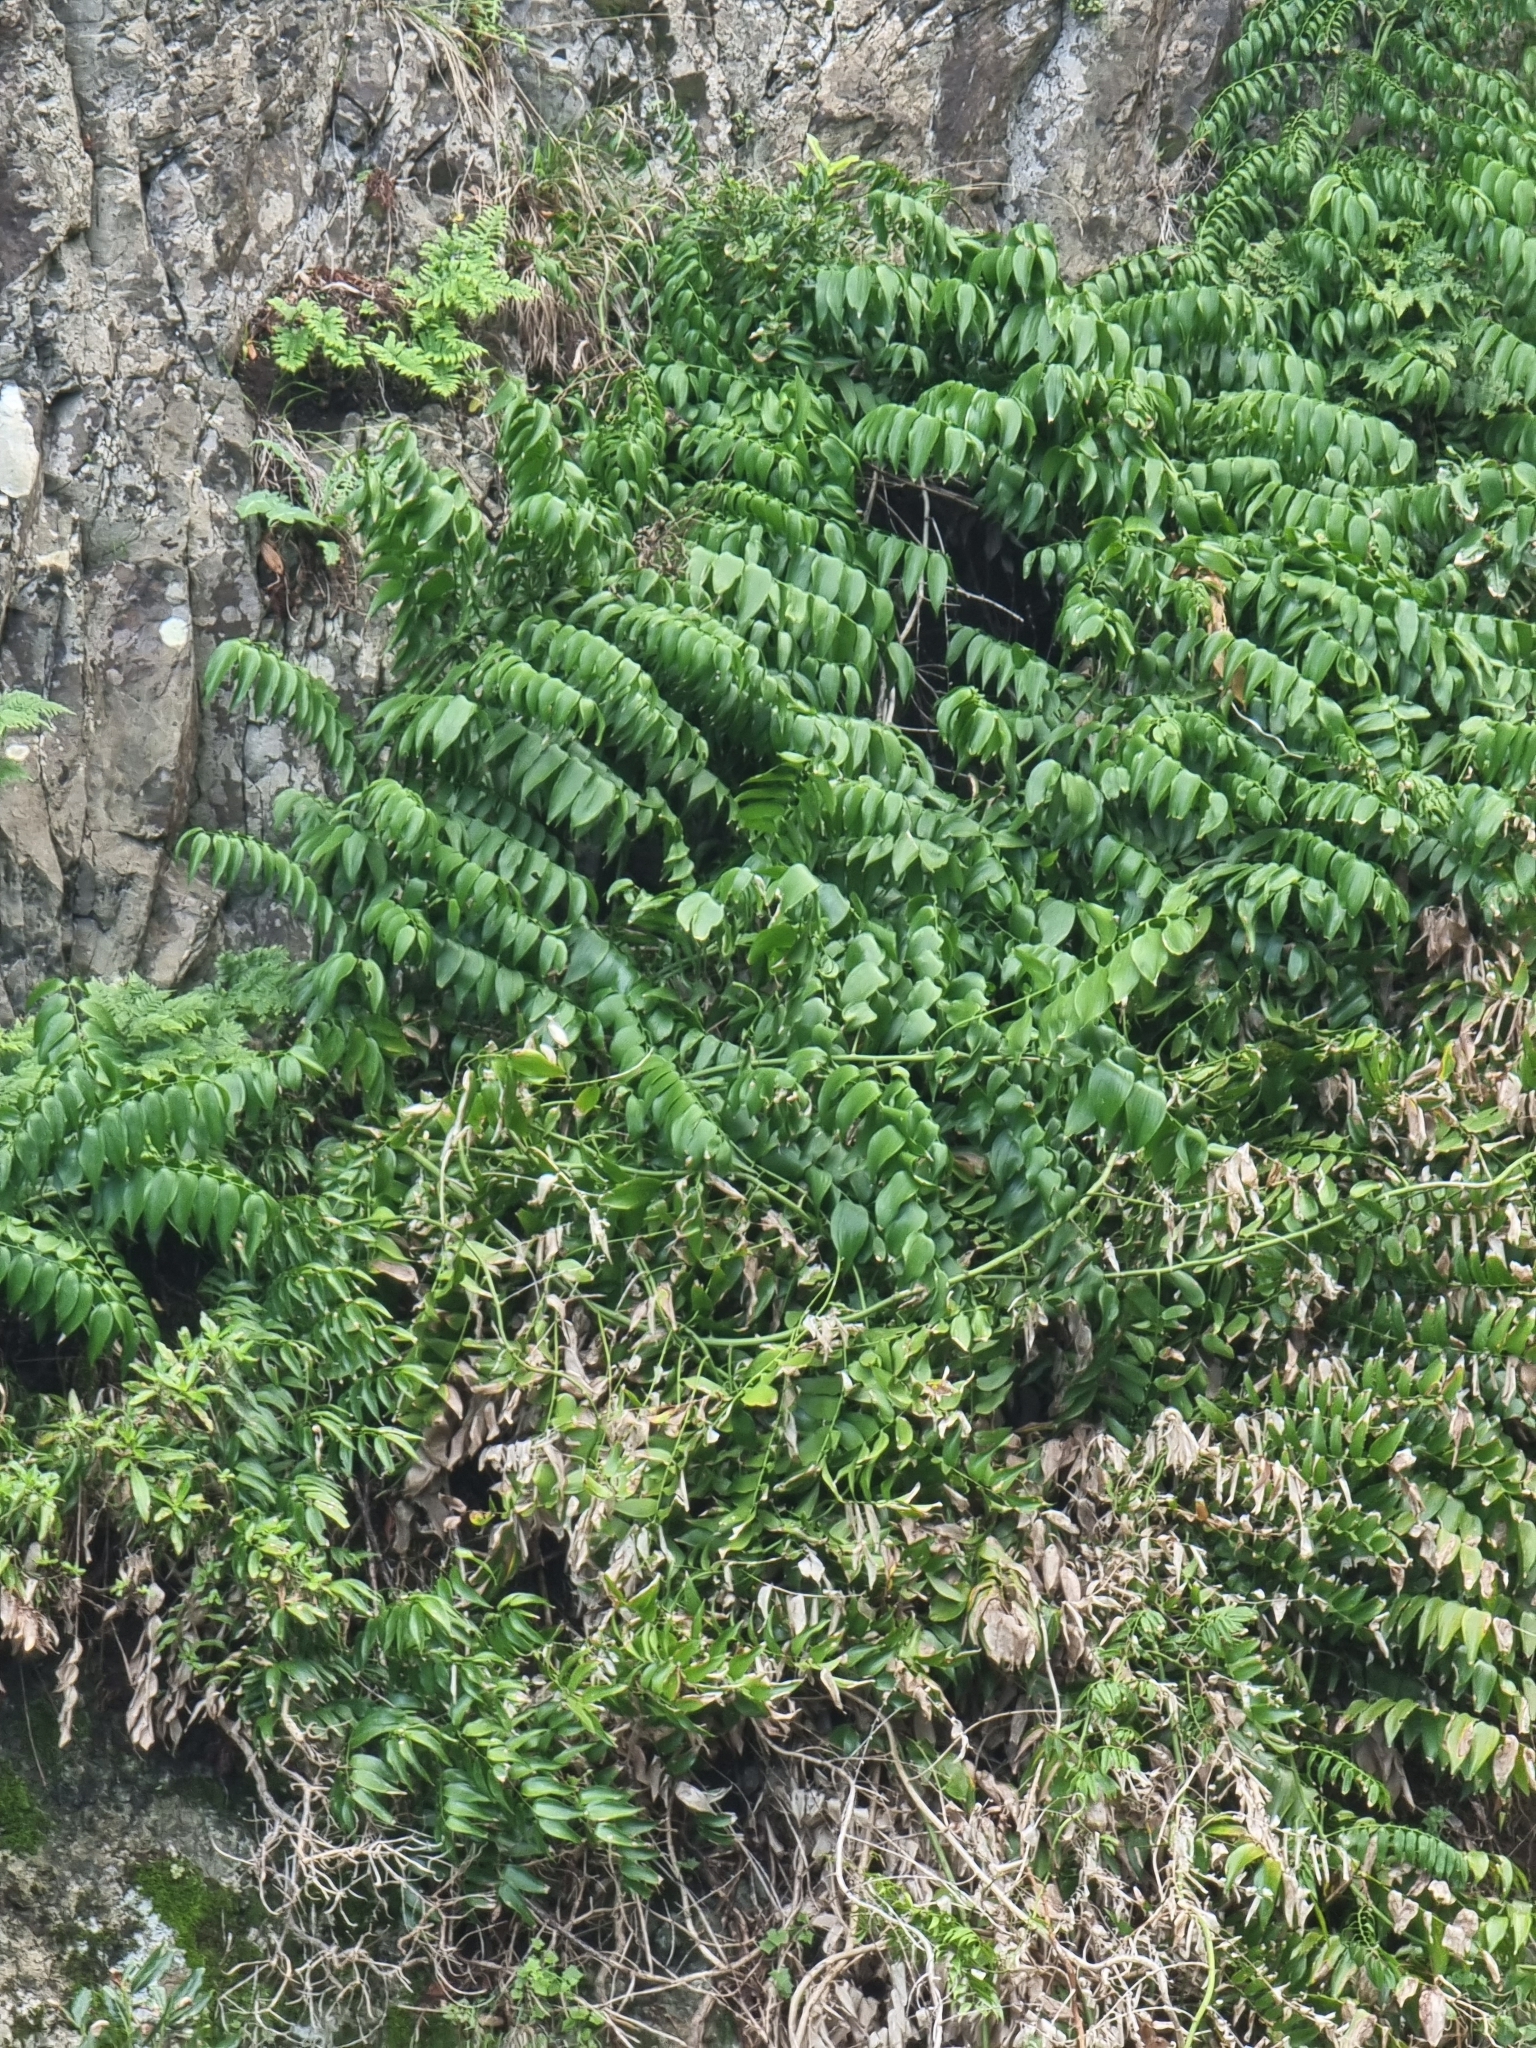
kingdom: Plantae
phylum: Tracheophyta
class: Liliopsida
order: Asparagales
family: Asparagaceae
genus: Semele
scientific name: Semele androgyna
